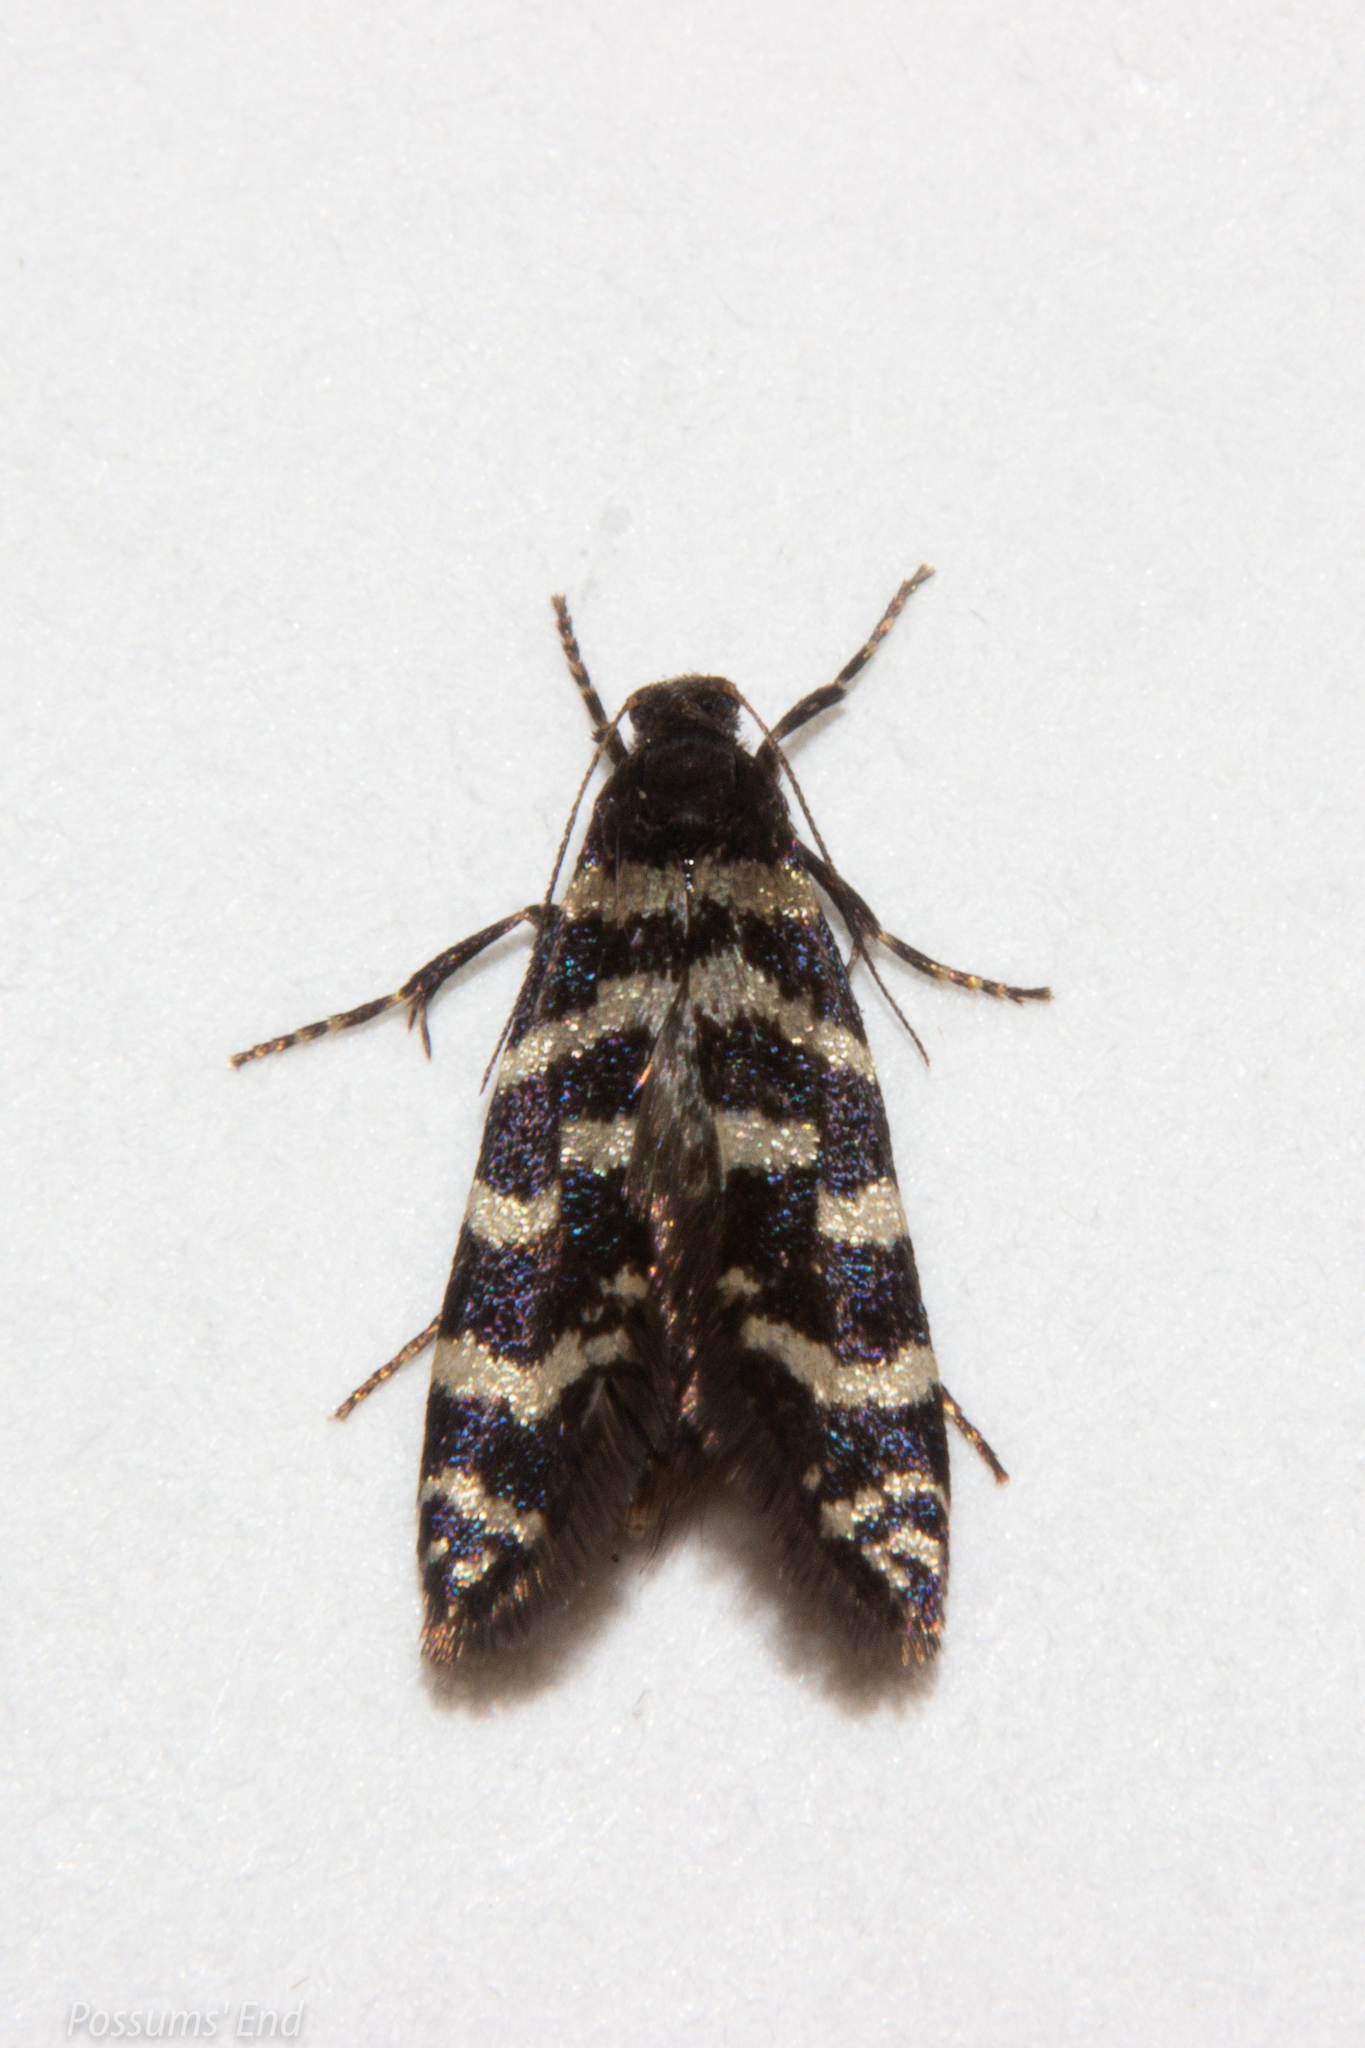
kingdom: Animalia
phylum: Arthropoda
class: Insecta
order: Lepidoptera
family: Psychidae
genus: Mallobathra
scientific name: Mallobathra memotuina
